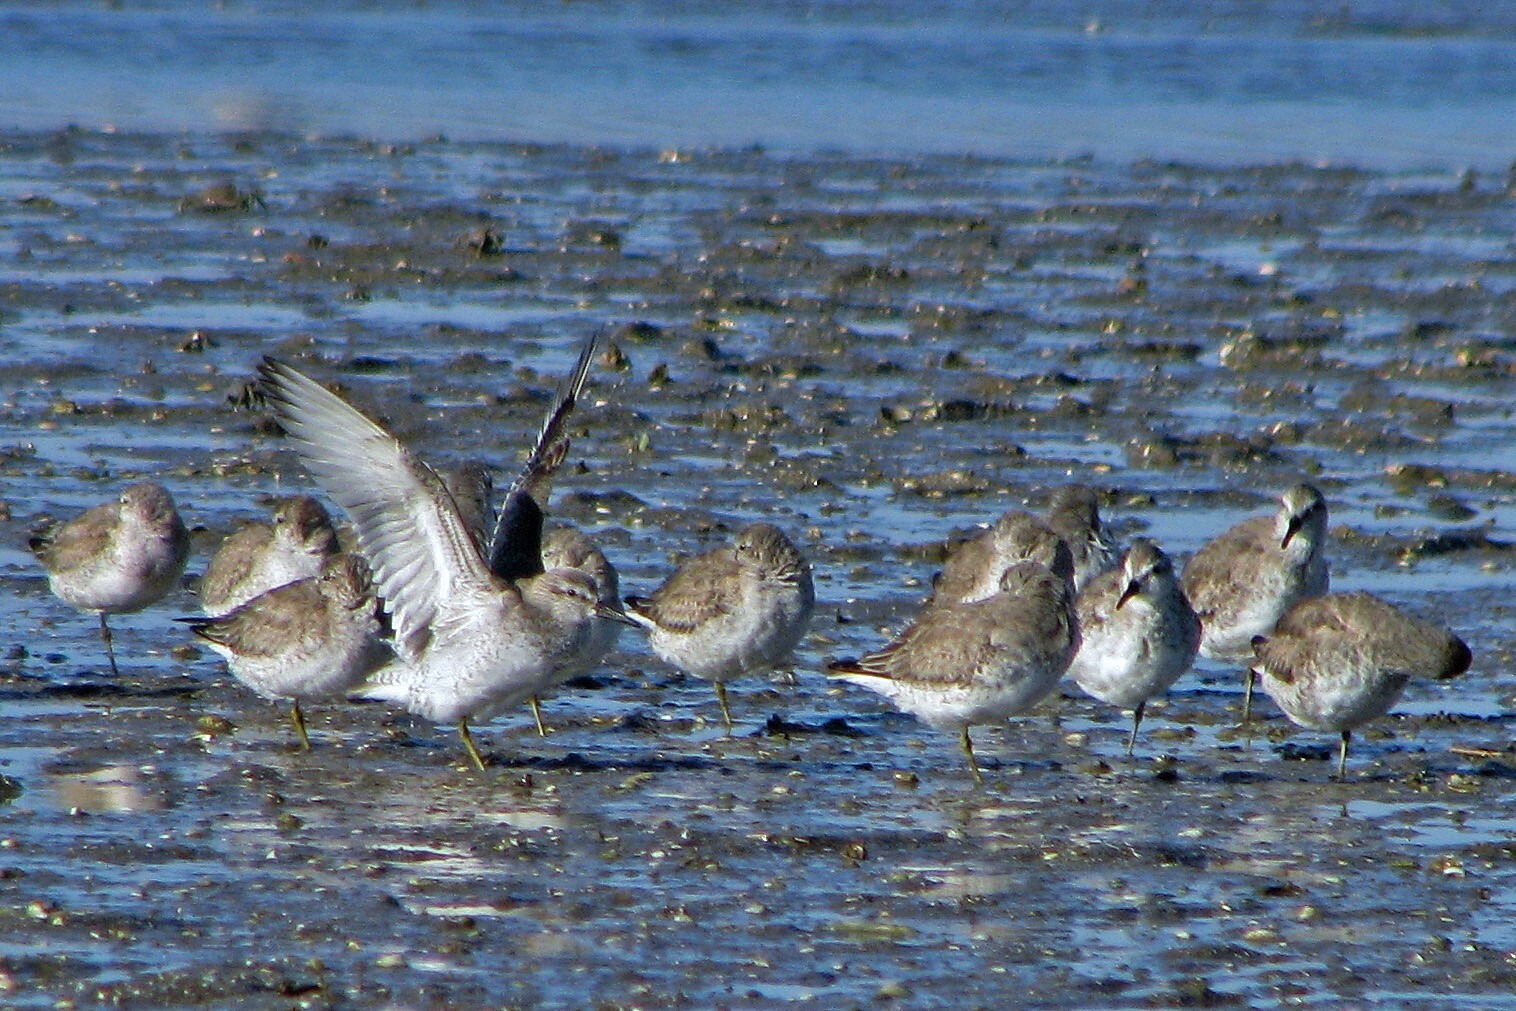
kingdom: Animalia
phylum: Chordata
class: Aves
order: Charadriiformes
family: Scolopacidae
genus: Calidris
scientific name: Calidris canutus
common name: Red knot
